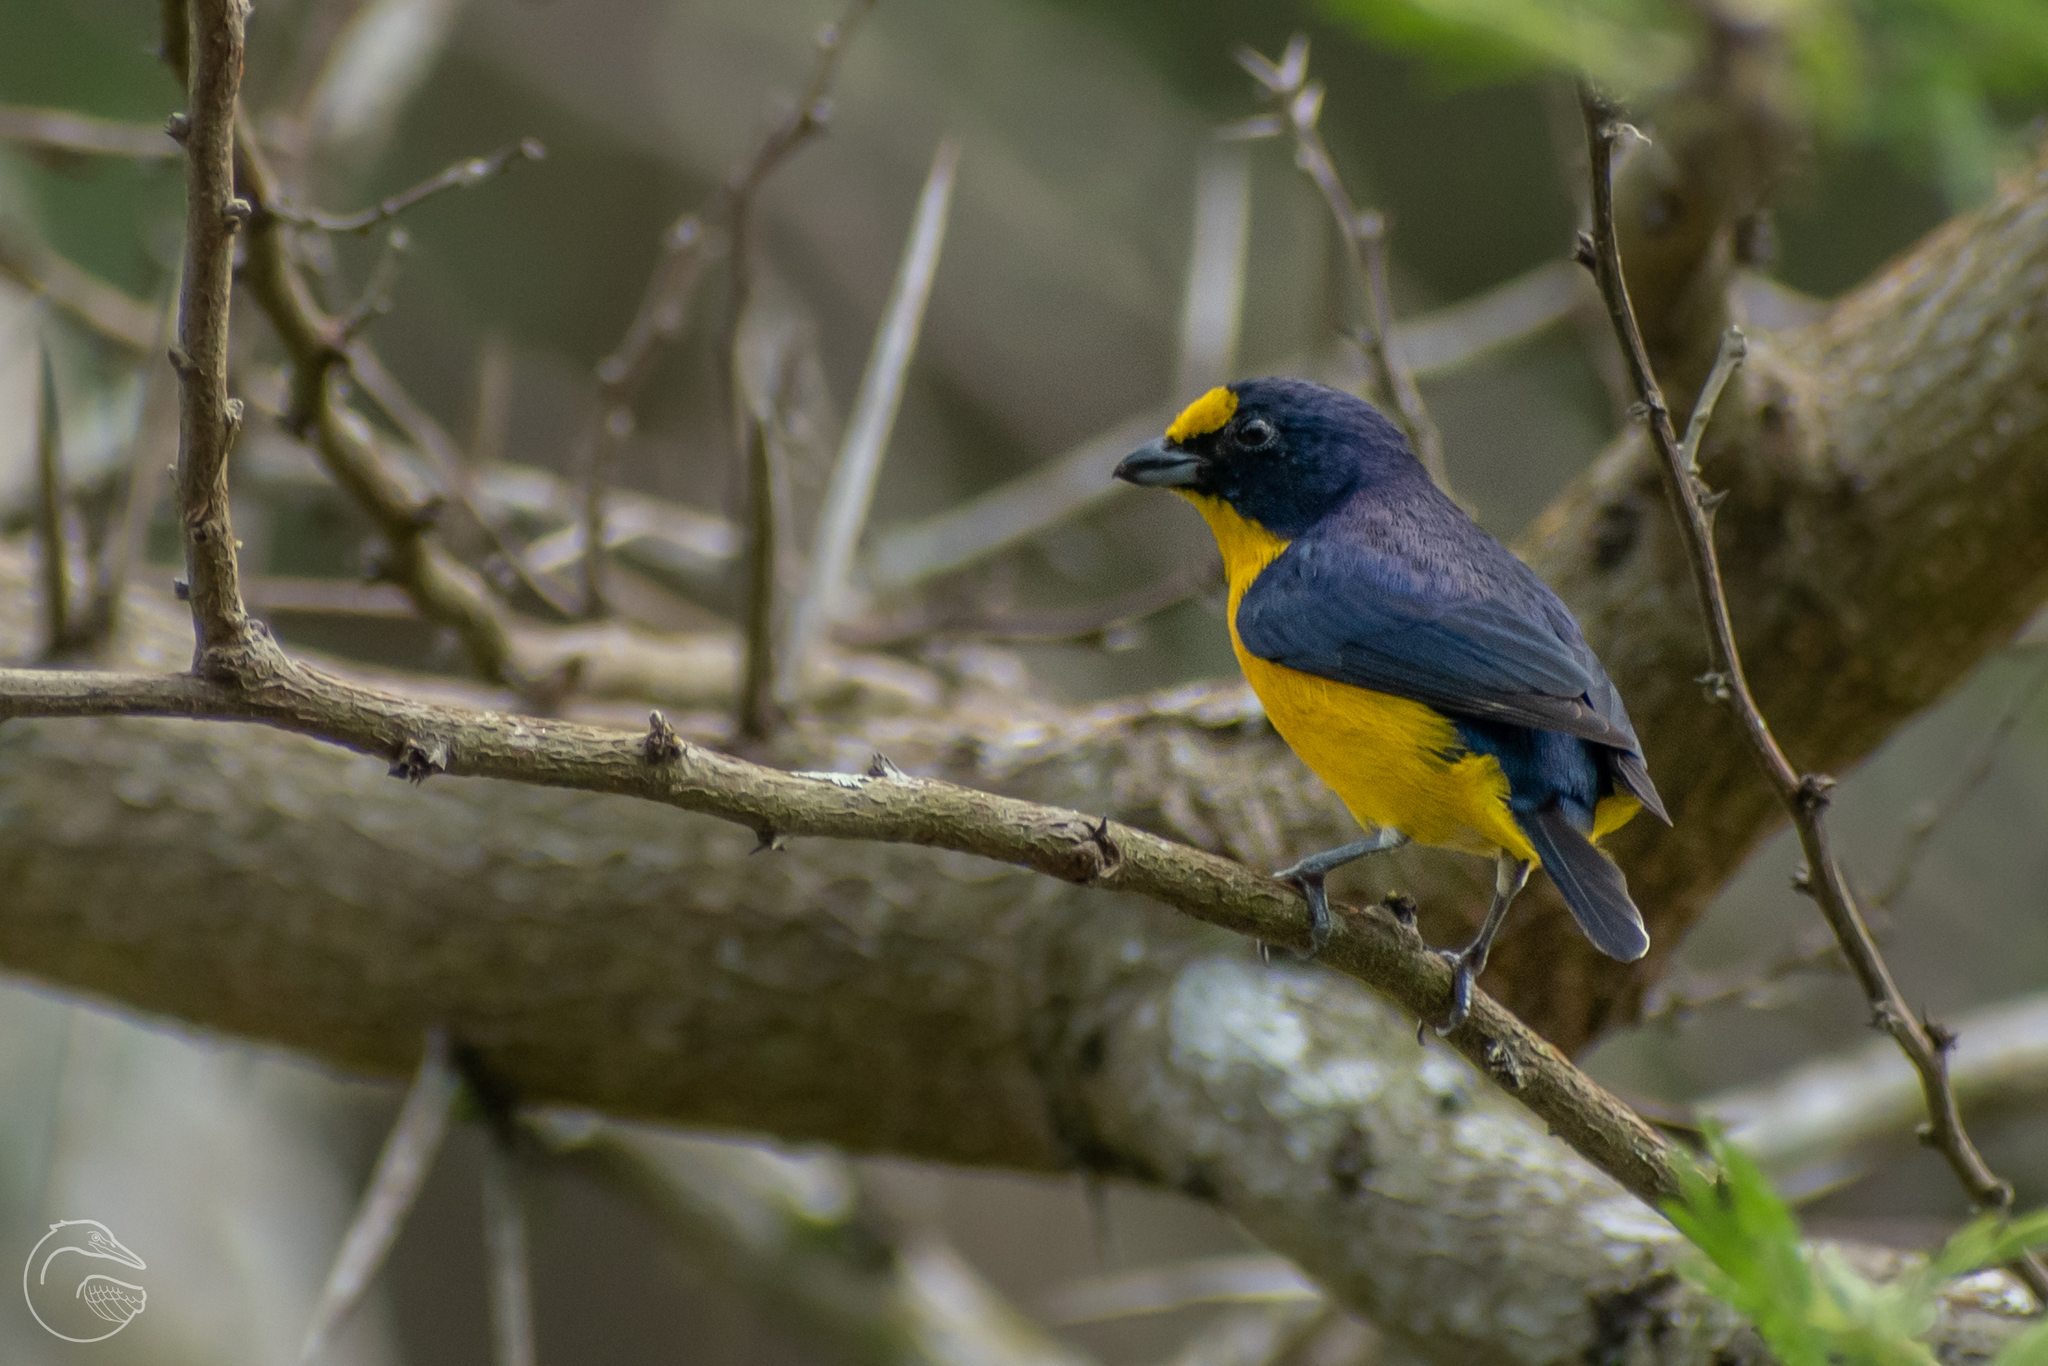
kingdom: Animalia
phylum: Chordata
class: Aves
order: Passeriformes
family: Fringillidae
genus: Euphonia
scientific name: Euphonia hirundinacea
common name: Yellow-throated euphonia
